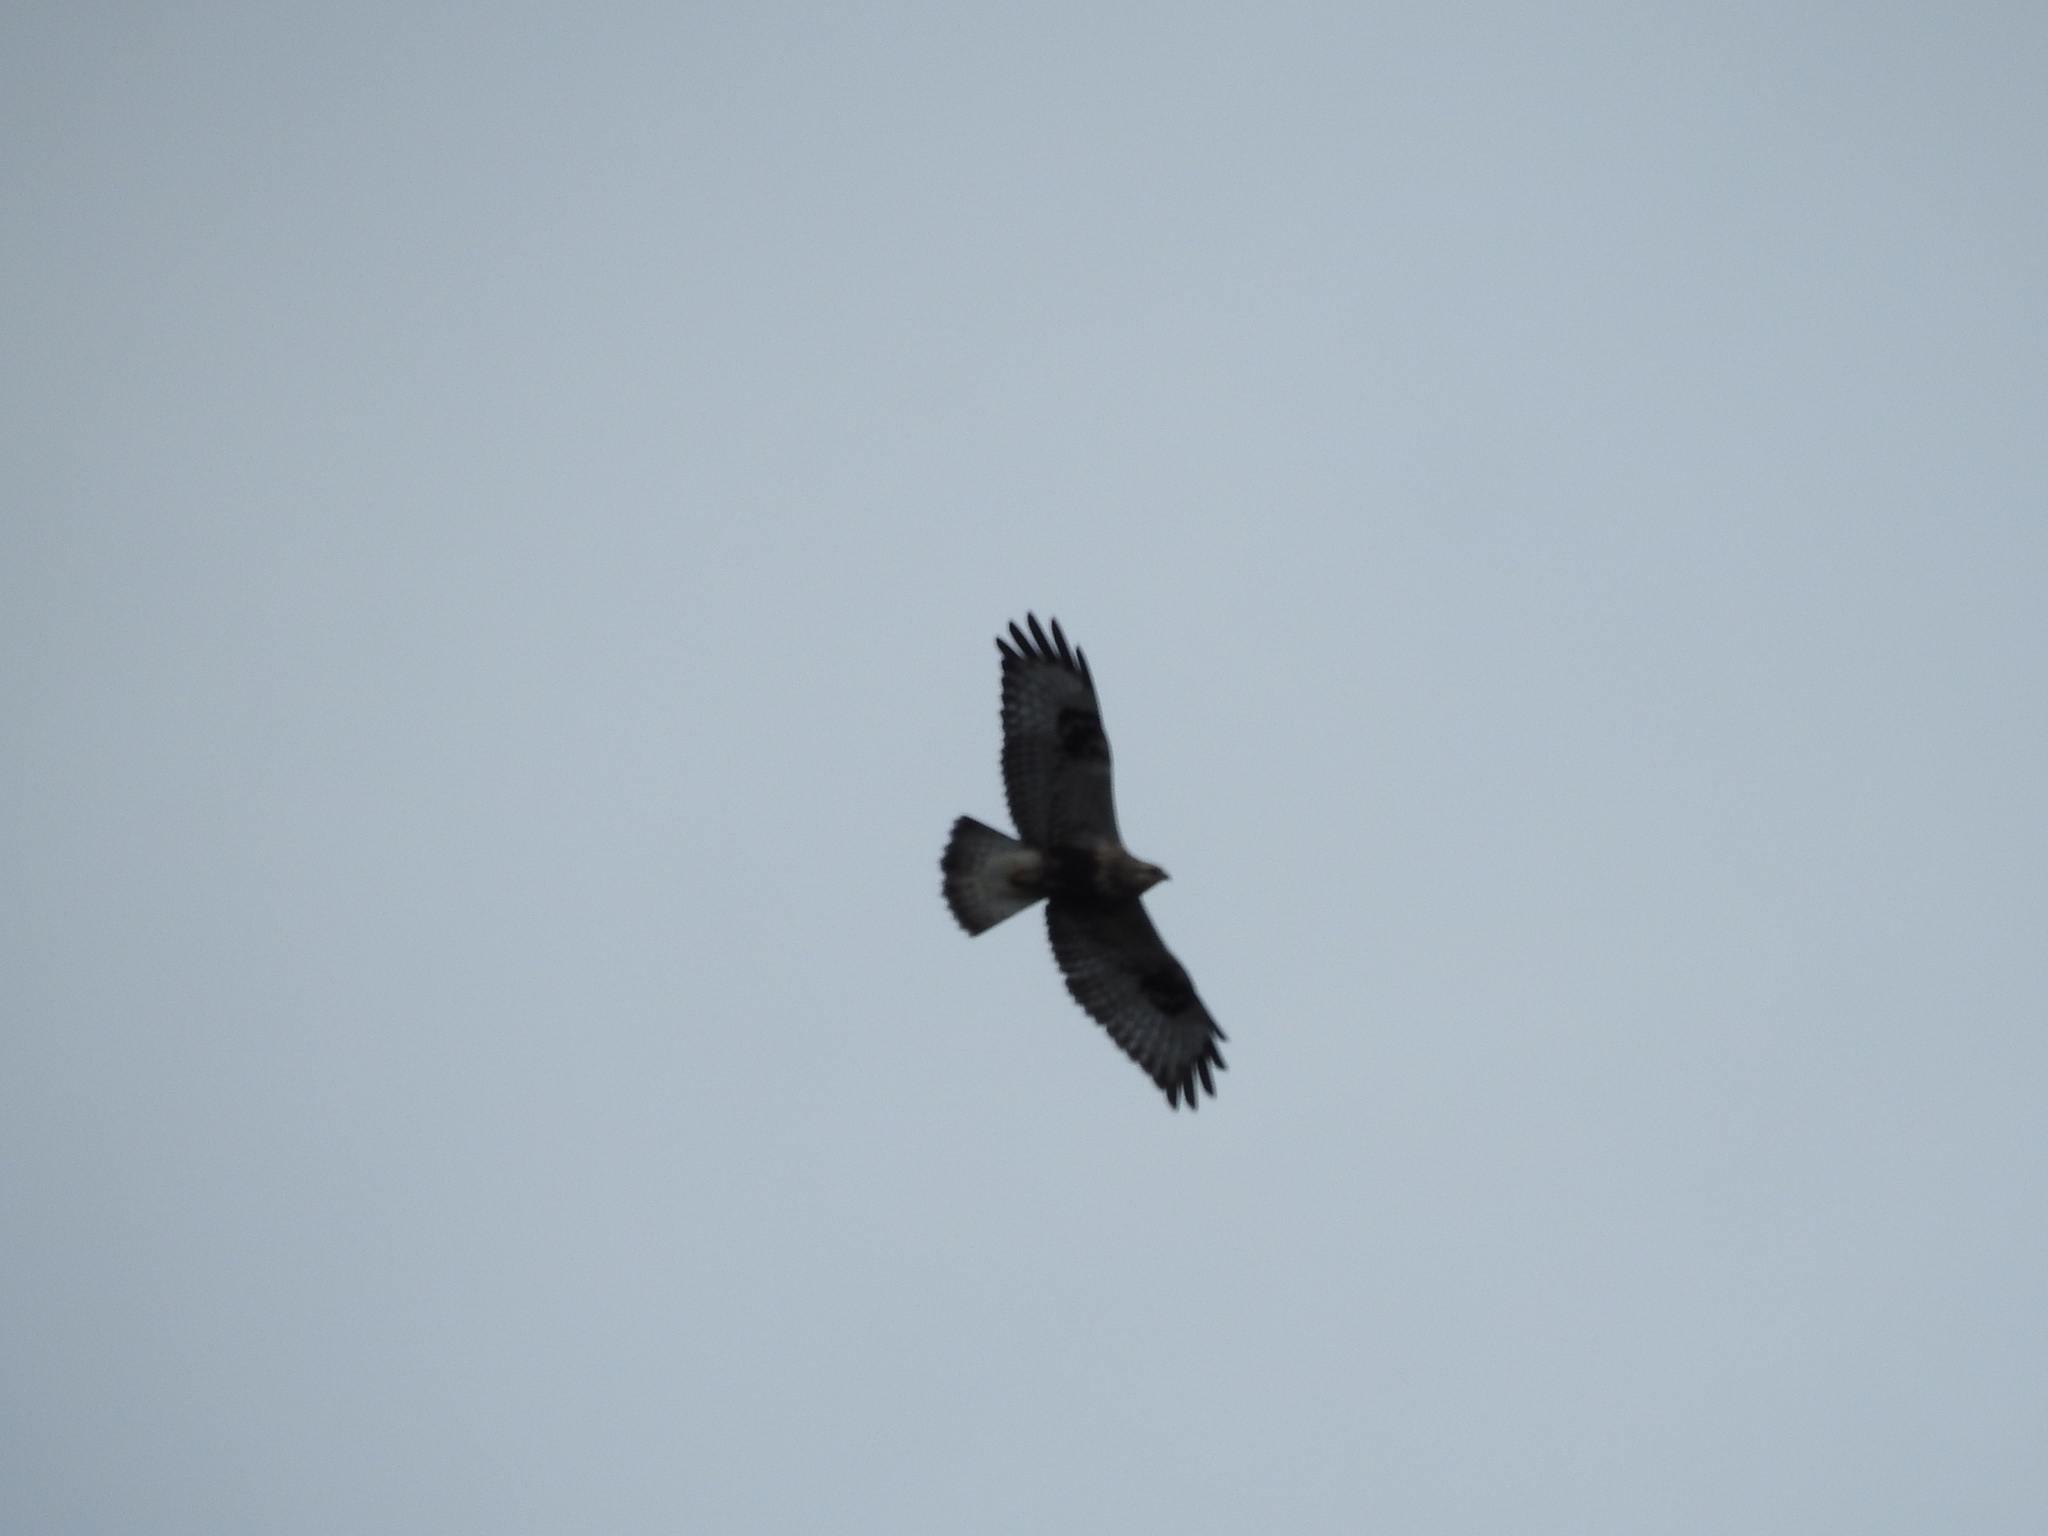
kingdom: Animalia
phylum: Chordata
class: Aves
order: Accipitriformes
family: Accipitridae
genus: Buteo
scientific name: Buteo lagopus
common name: Rough-legged buzzard
